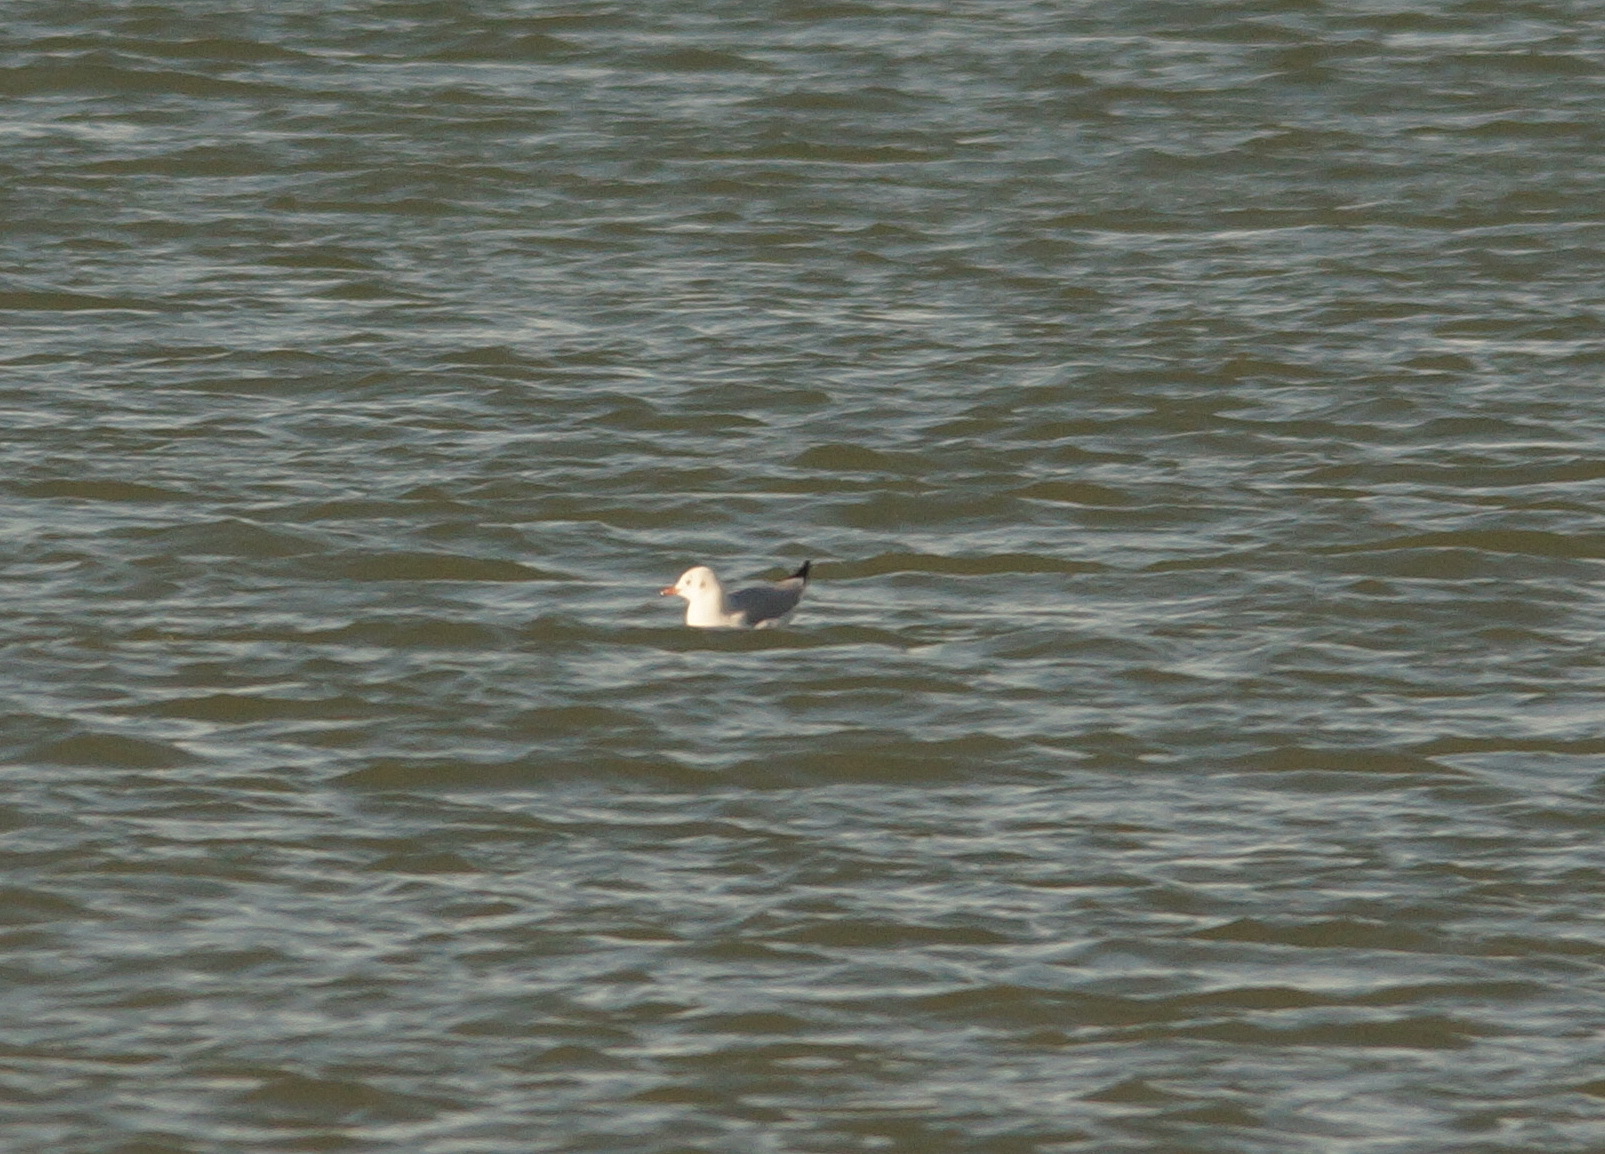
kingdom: Animalia
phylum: Chordata
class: Aves
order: Charadriiformes
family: Laridae
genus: Chroicocephalus
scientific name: Chroicocephalus ridibundus
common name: Black-headed gull
